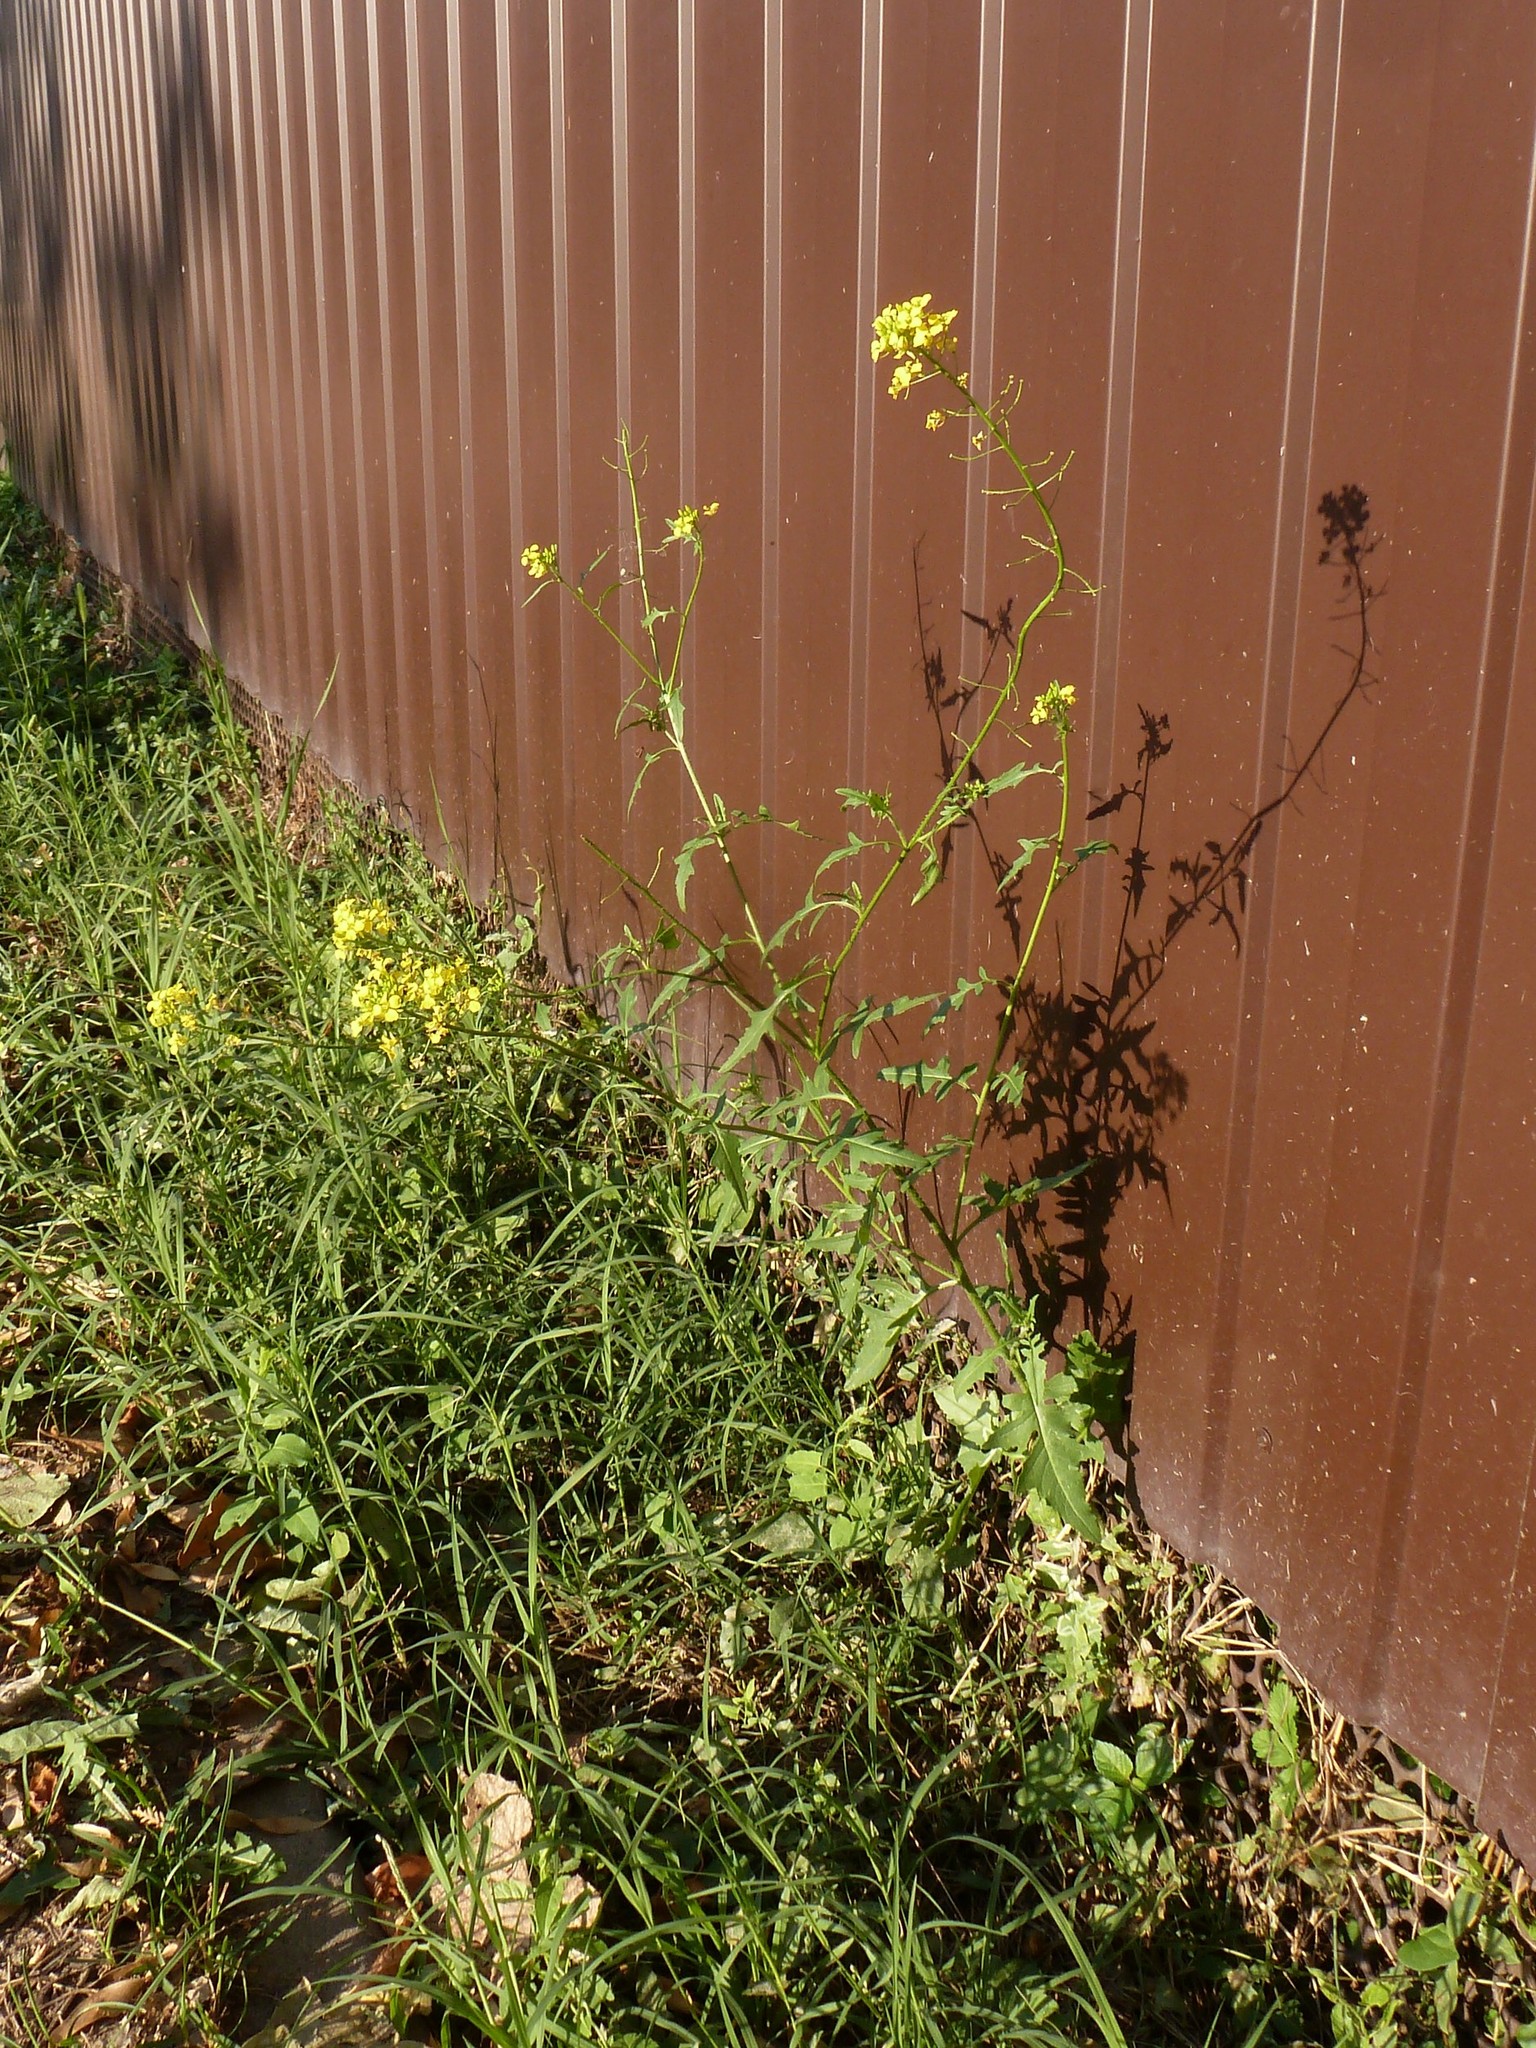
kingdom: Plantae
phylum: Tracheophyta
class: Magnoliopsida
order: Brassicales
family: Brassicaceae
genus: Sisymbrium
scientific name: Sisymbrium loeselii
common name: False london-rocket
